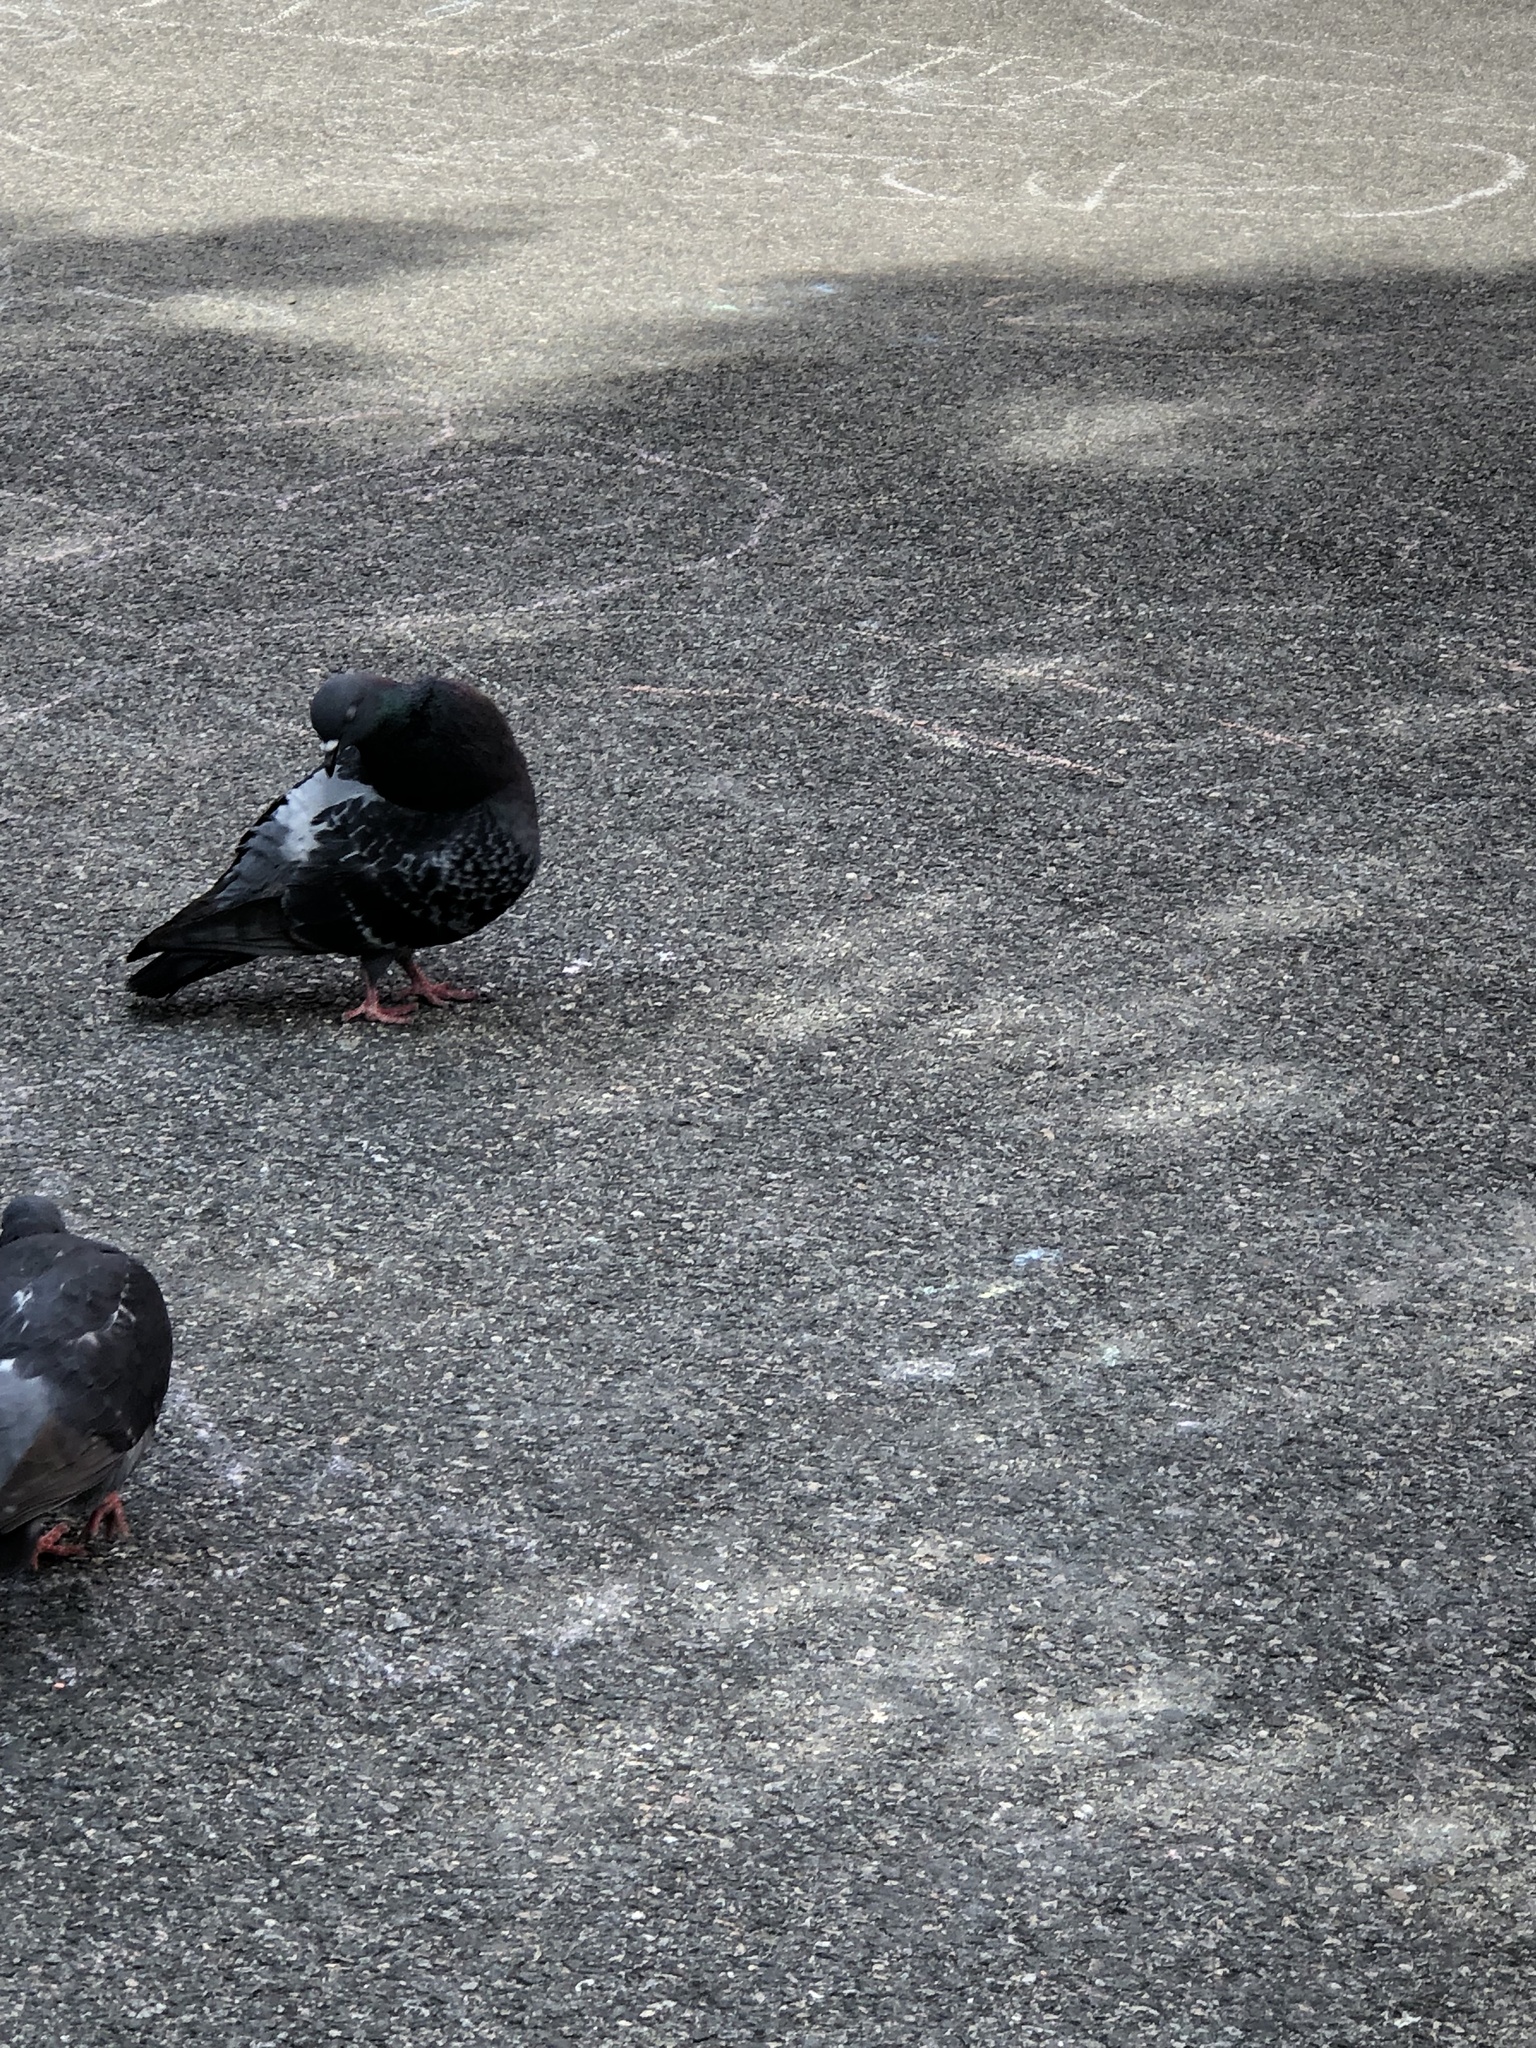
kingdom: Animalia
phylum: Chordata
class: Aves
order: Columbiformes
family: Columbidae
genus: Columba
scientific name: Columba livia
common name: Rock pigeon
